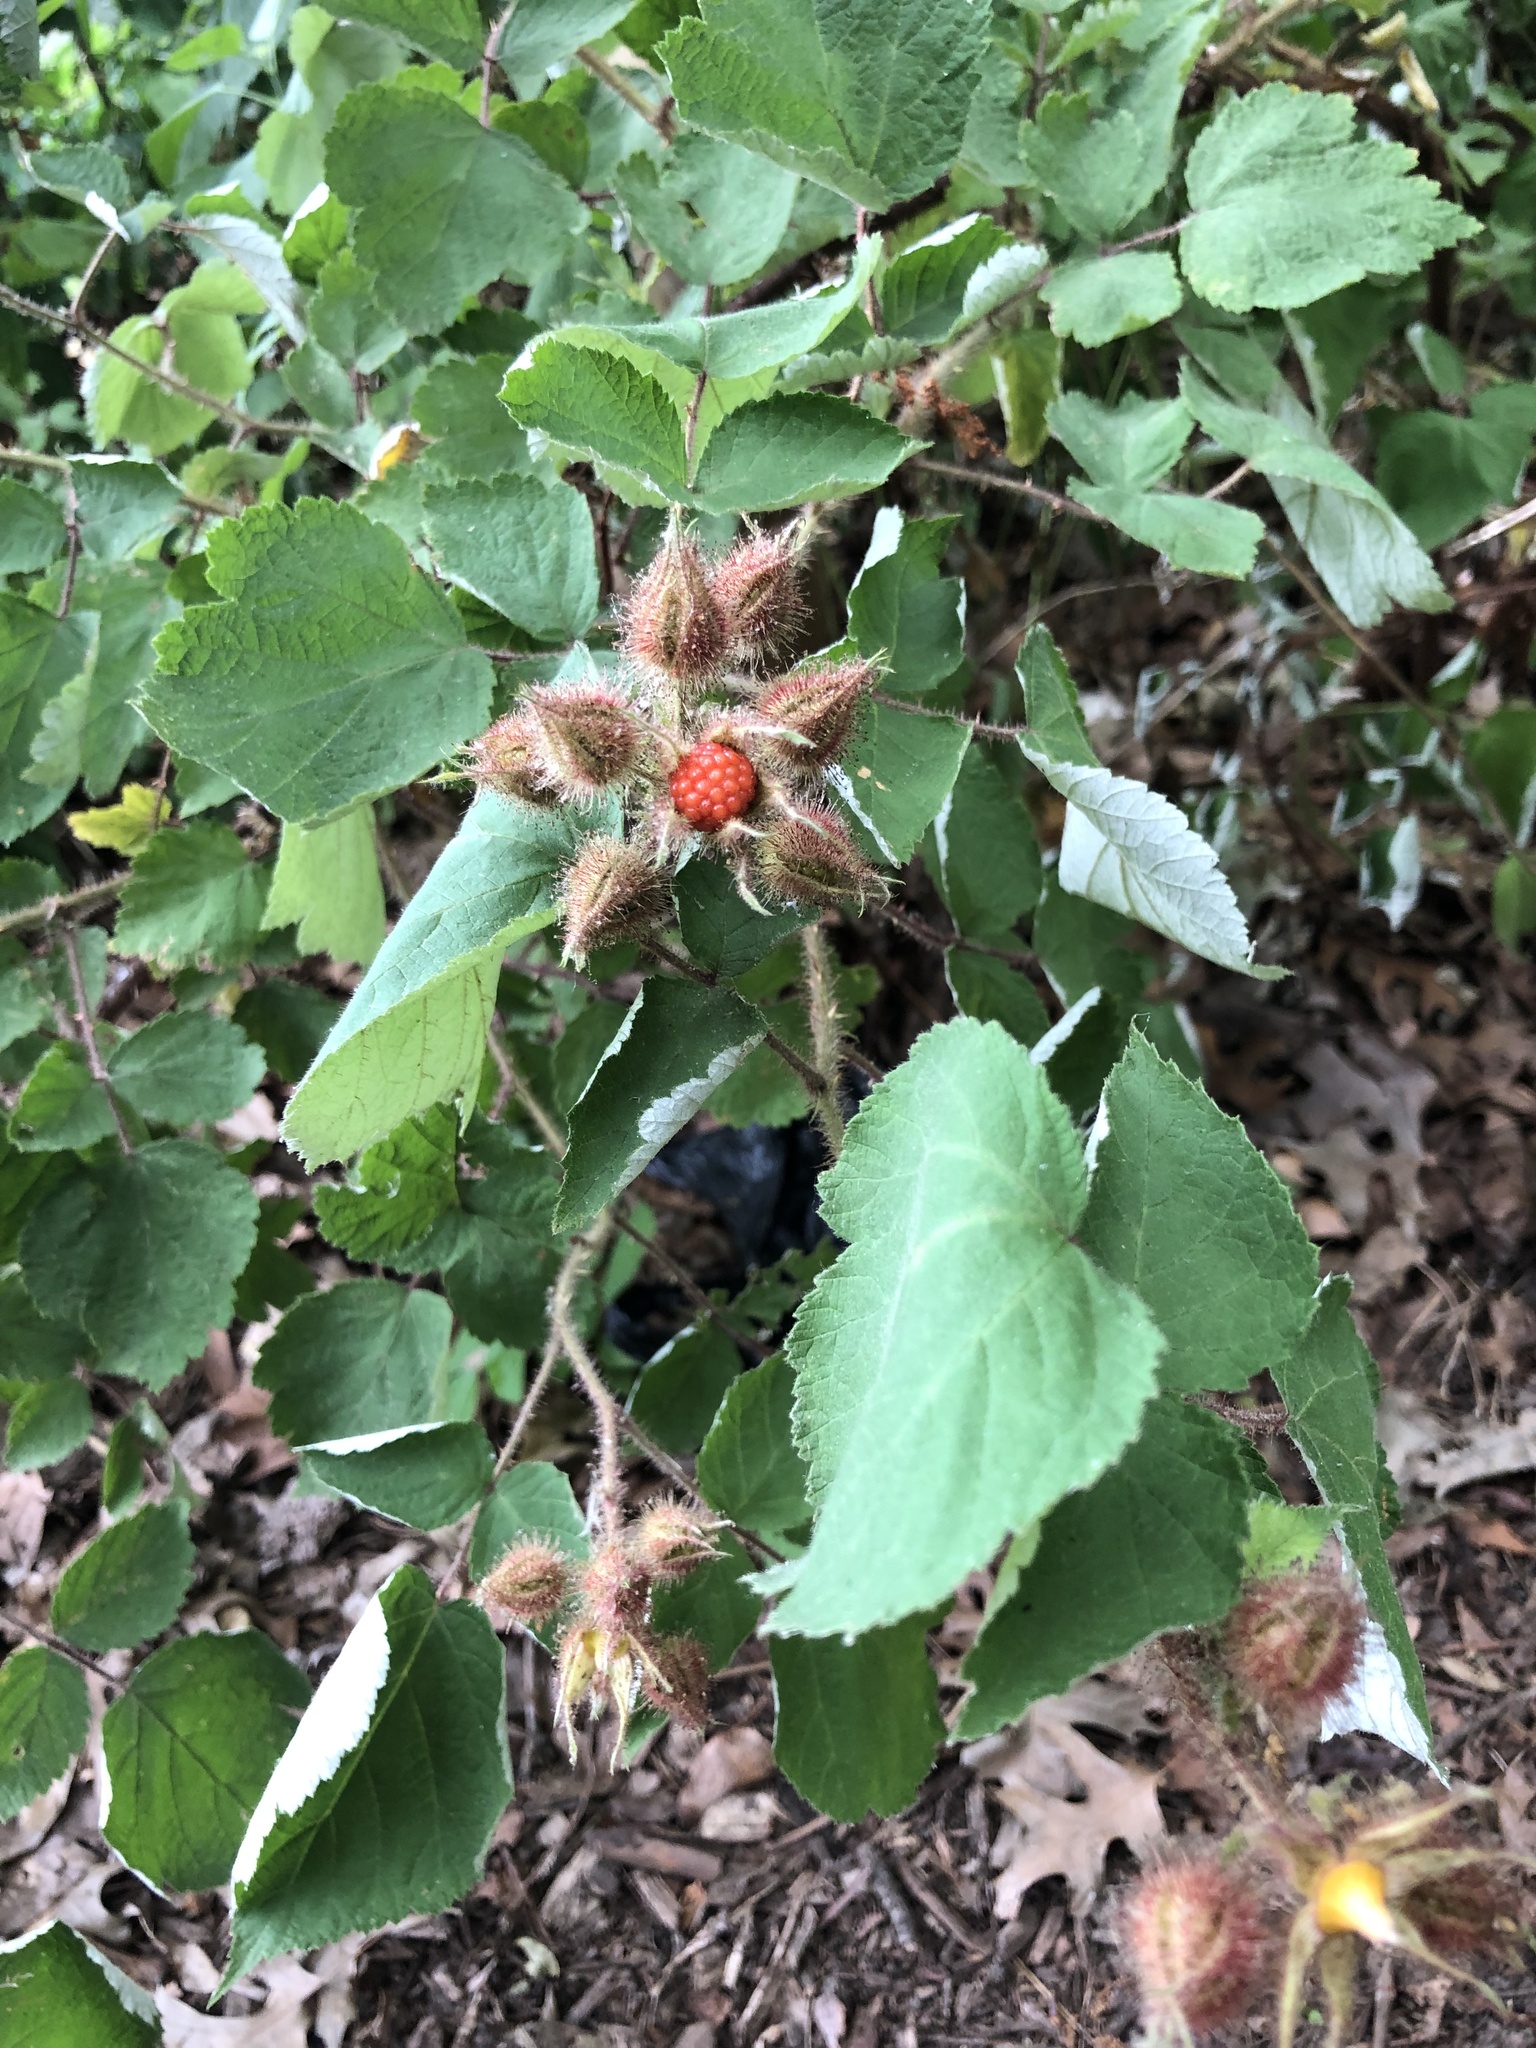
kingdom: Plantae
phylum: Tracheophyta
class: Magnoliopsida
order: Rosales
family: Rosaceae
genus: Rubus
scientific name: Rubus phoenicolasius
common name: Japanese wineberry
